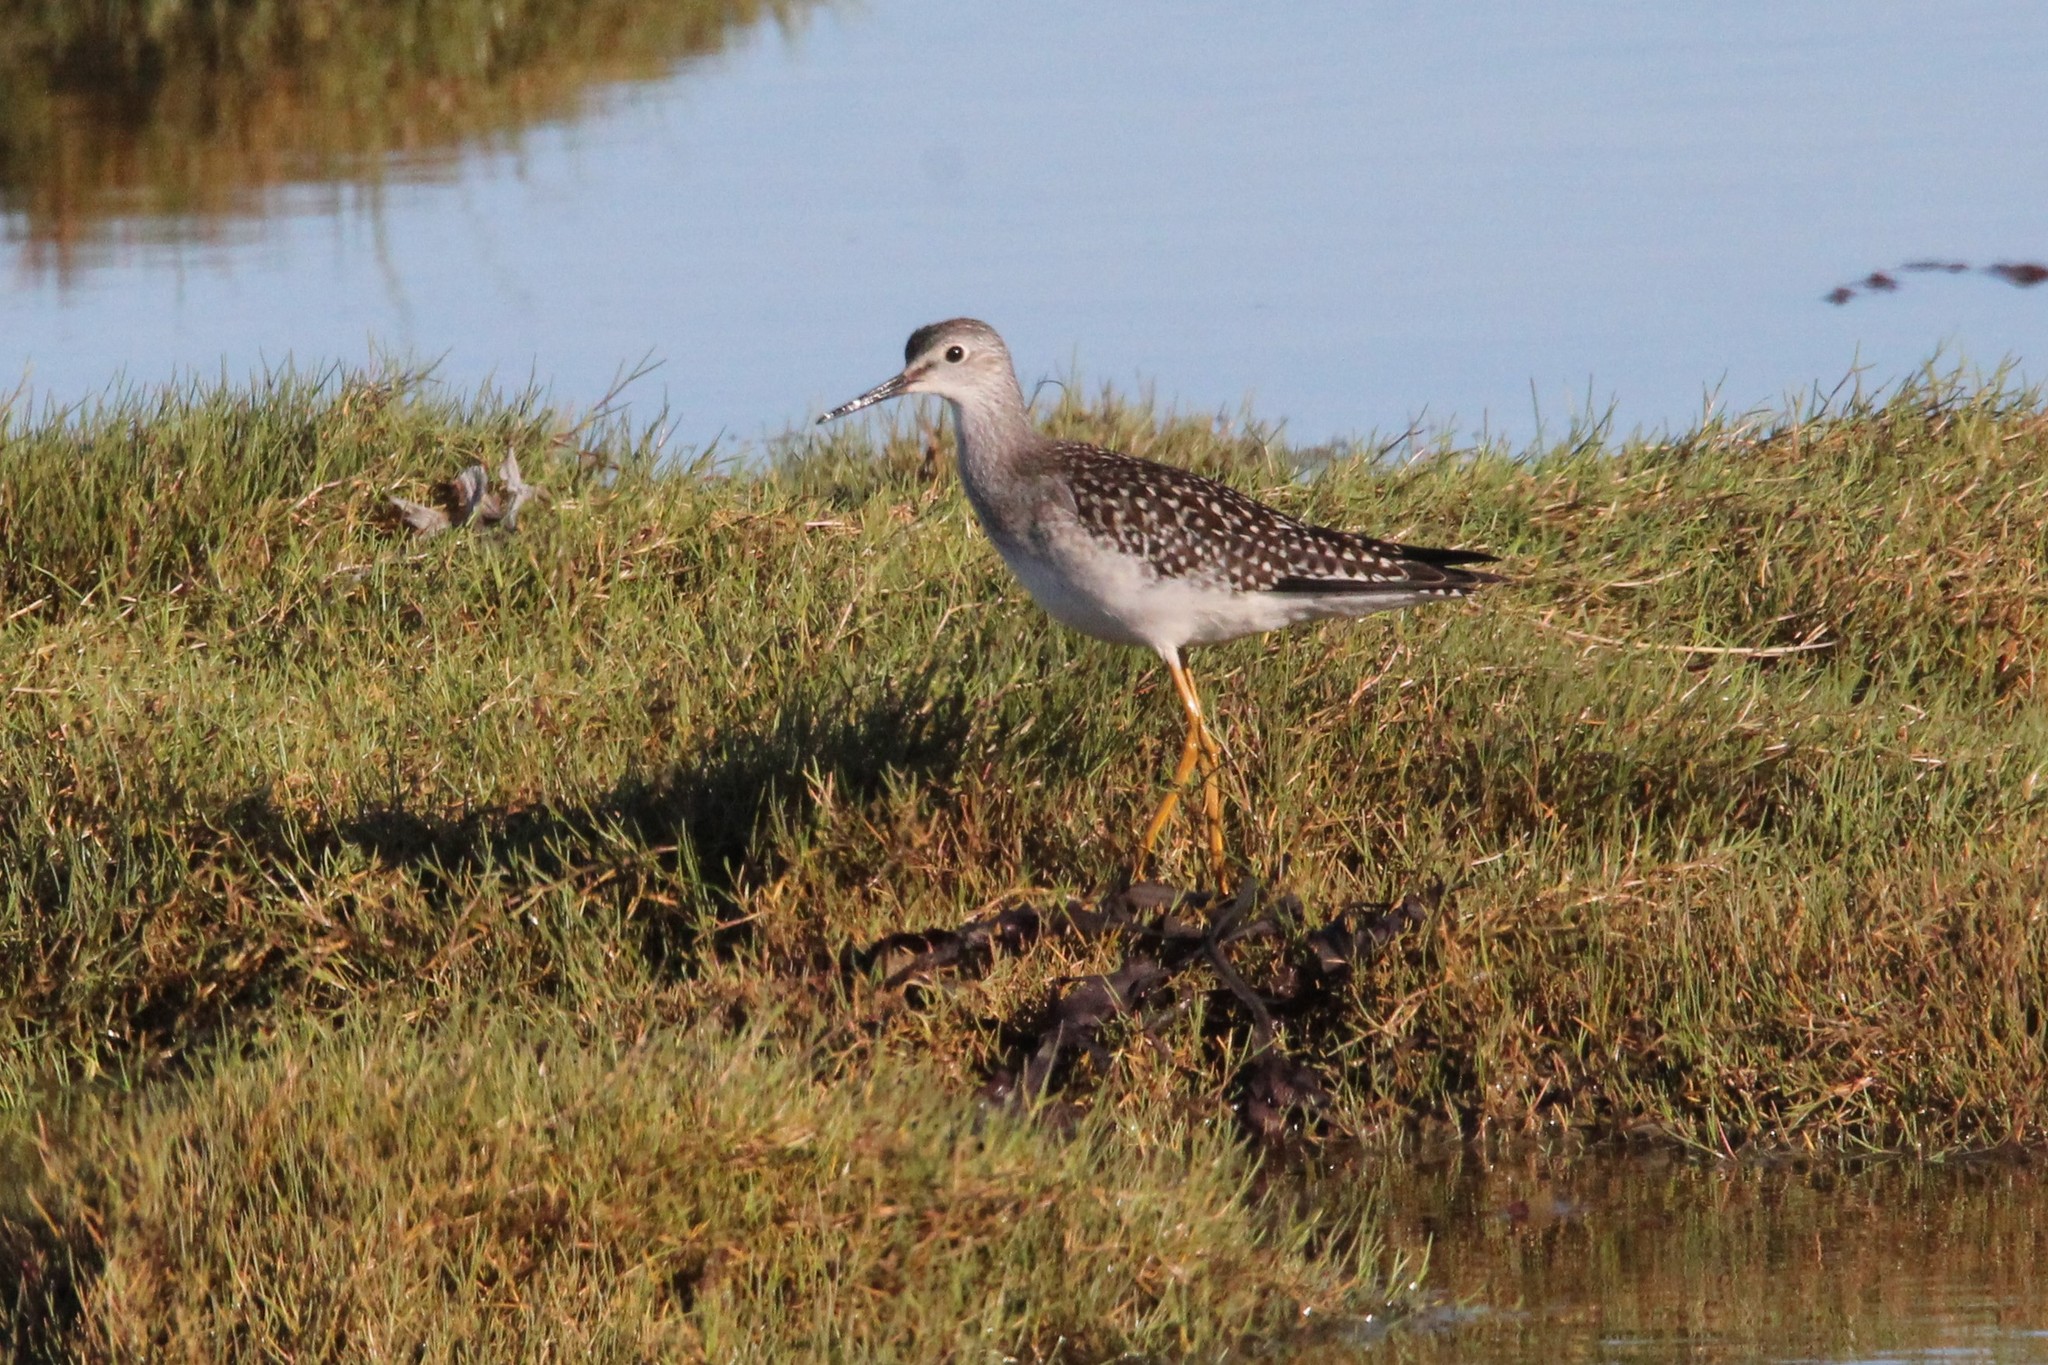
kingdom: Animalia
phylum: Chordata
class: Aves
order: Charadriiformes
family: Scolopacidae
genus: Tringa
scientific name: Tringa flavipes
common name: Lesser yellowlegs
